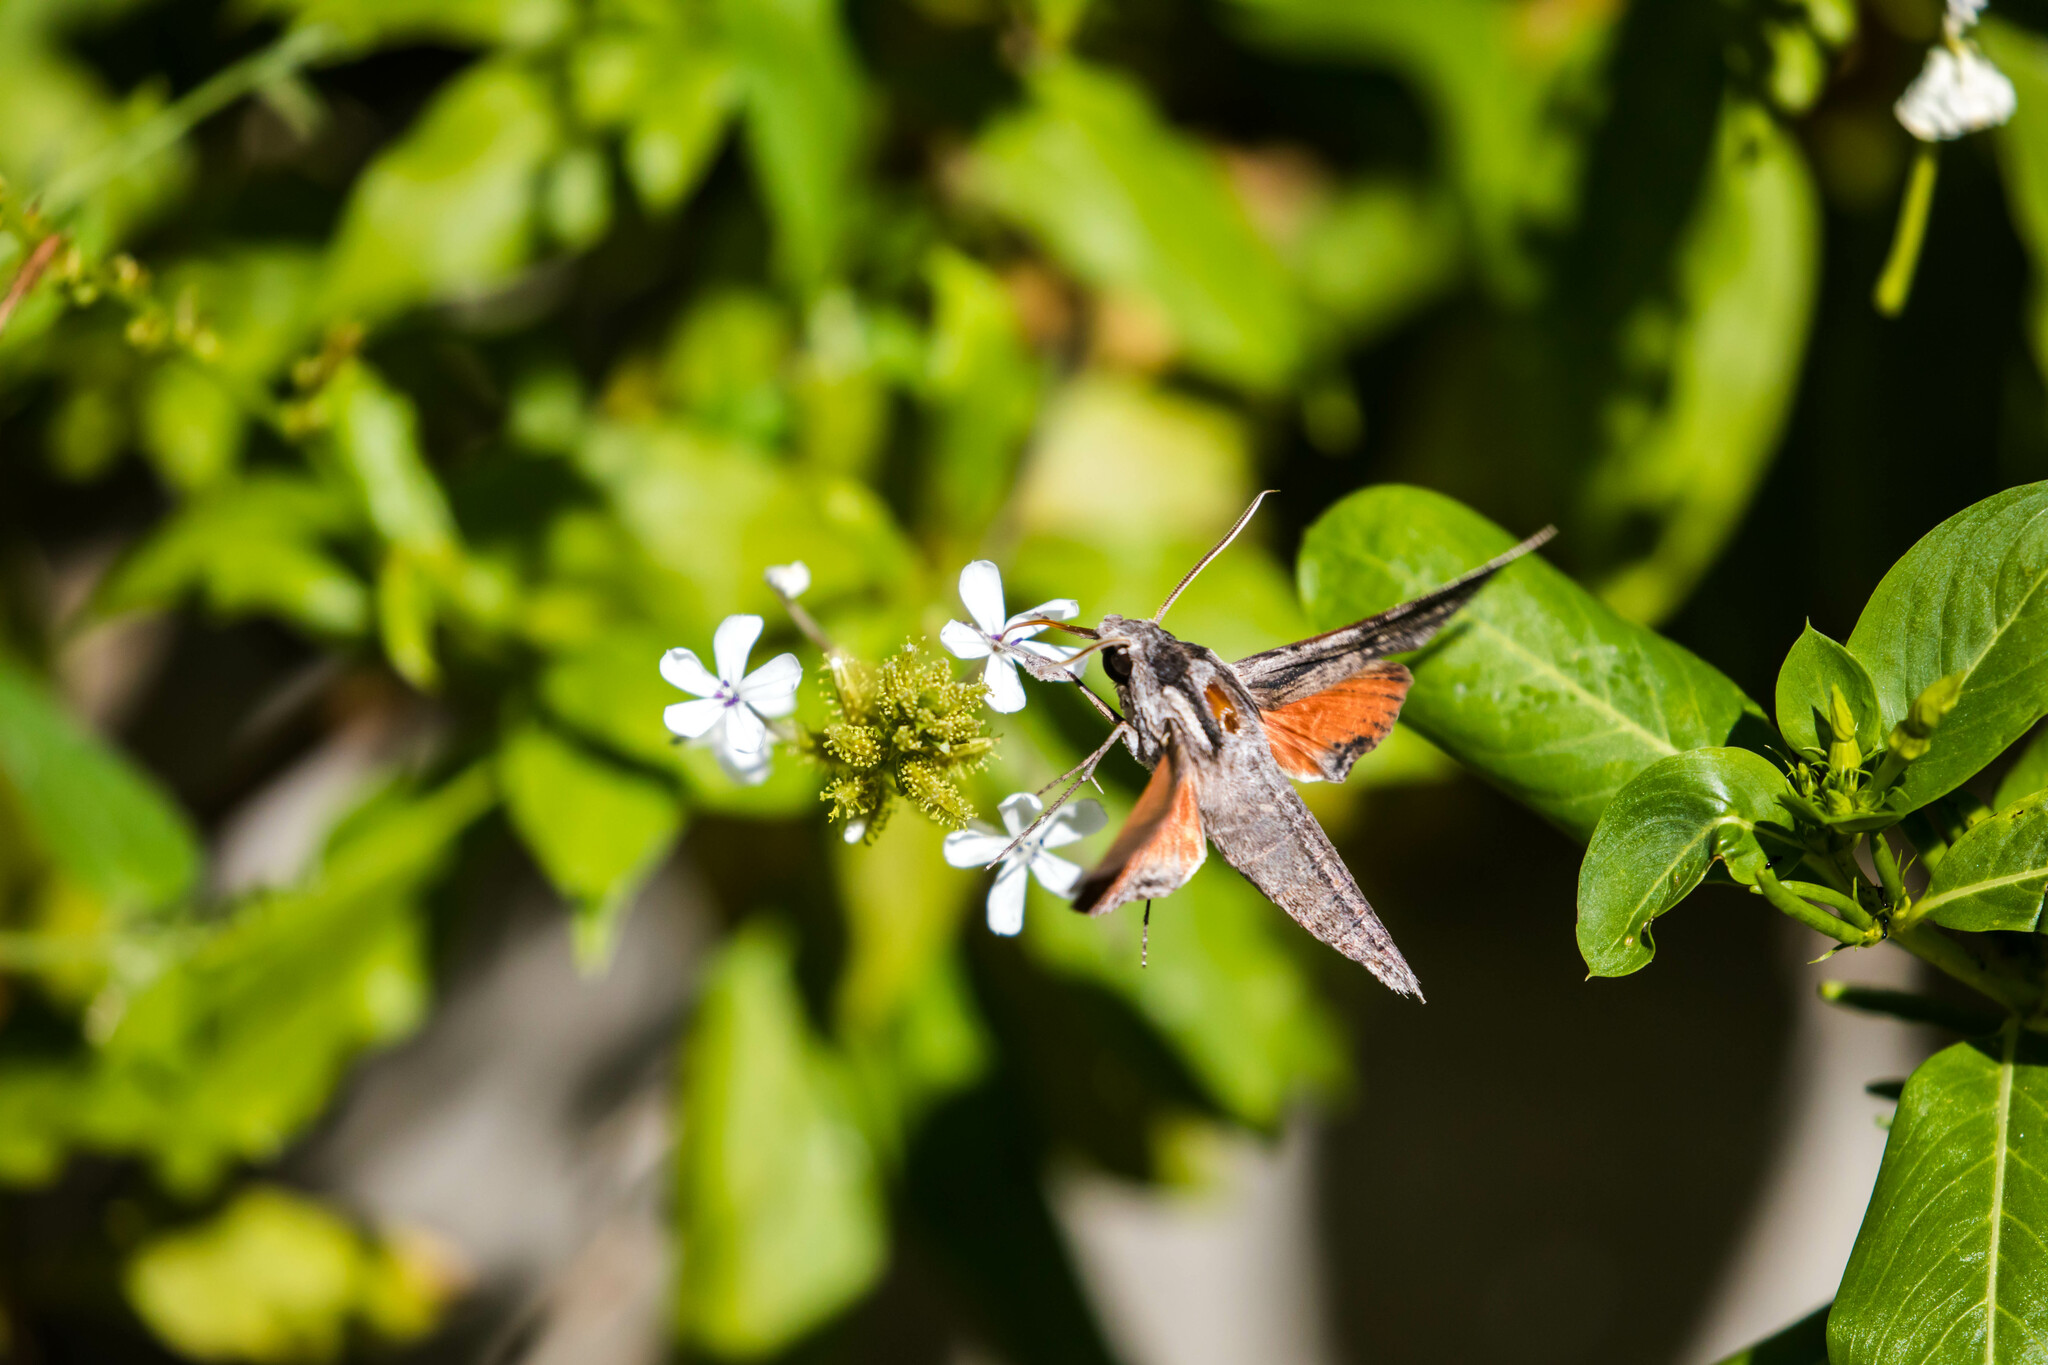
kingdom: Animalia
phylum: Arthropoda
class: Insecta
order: Lepidoptera
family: Sphingidae
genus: Erinnyis
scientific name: Erinnyis obscura
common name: Obscure sphinx
